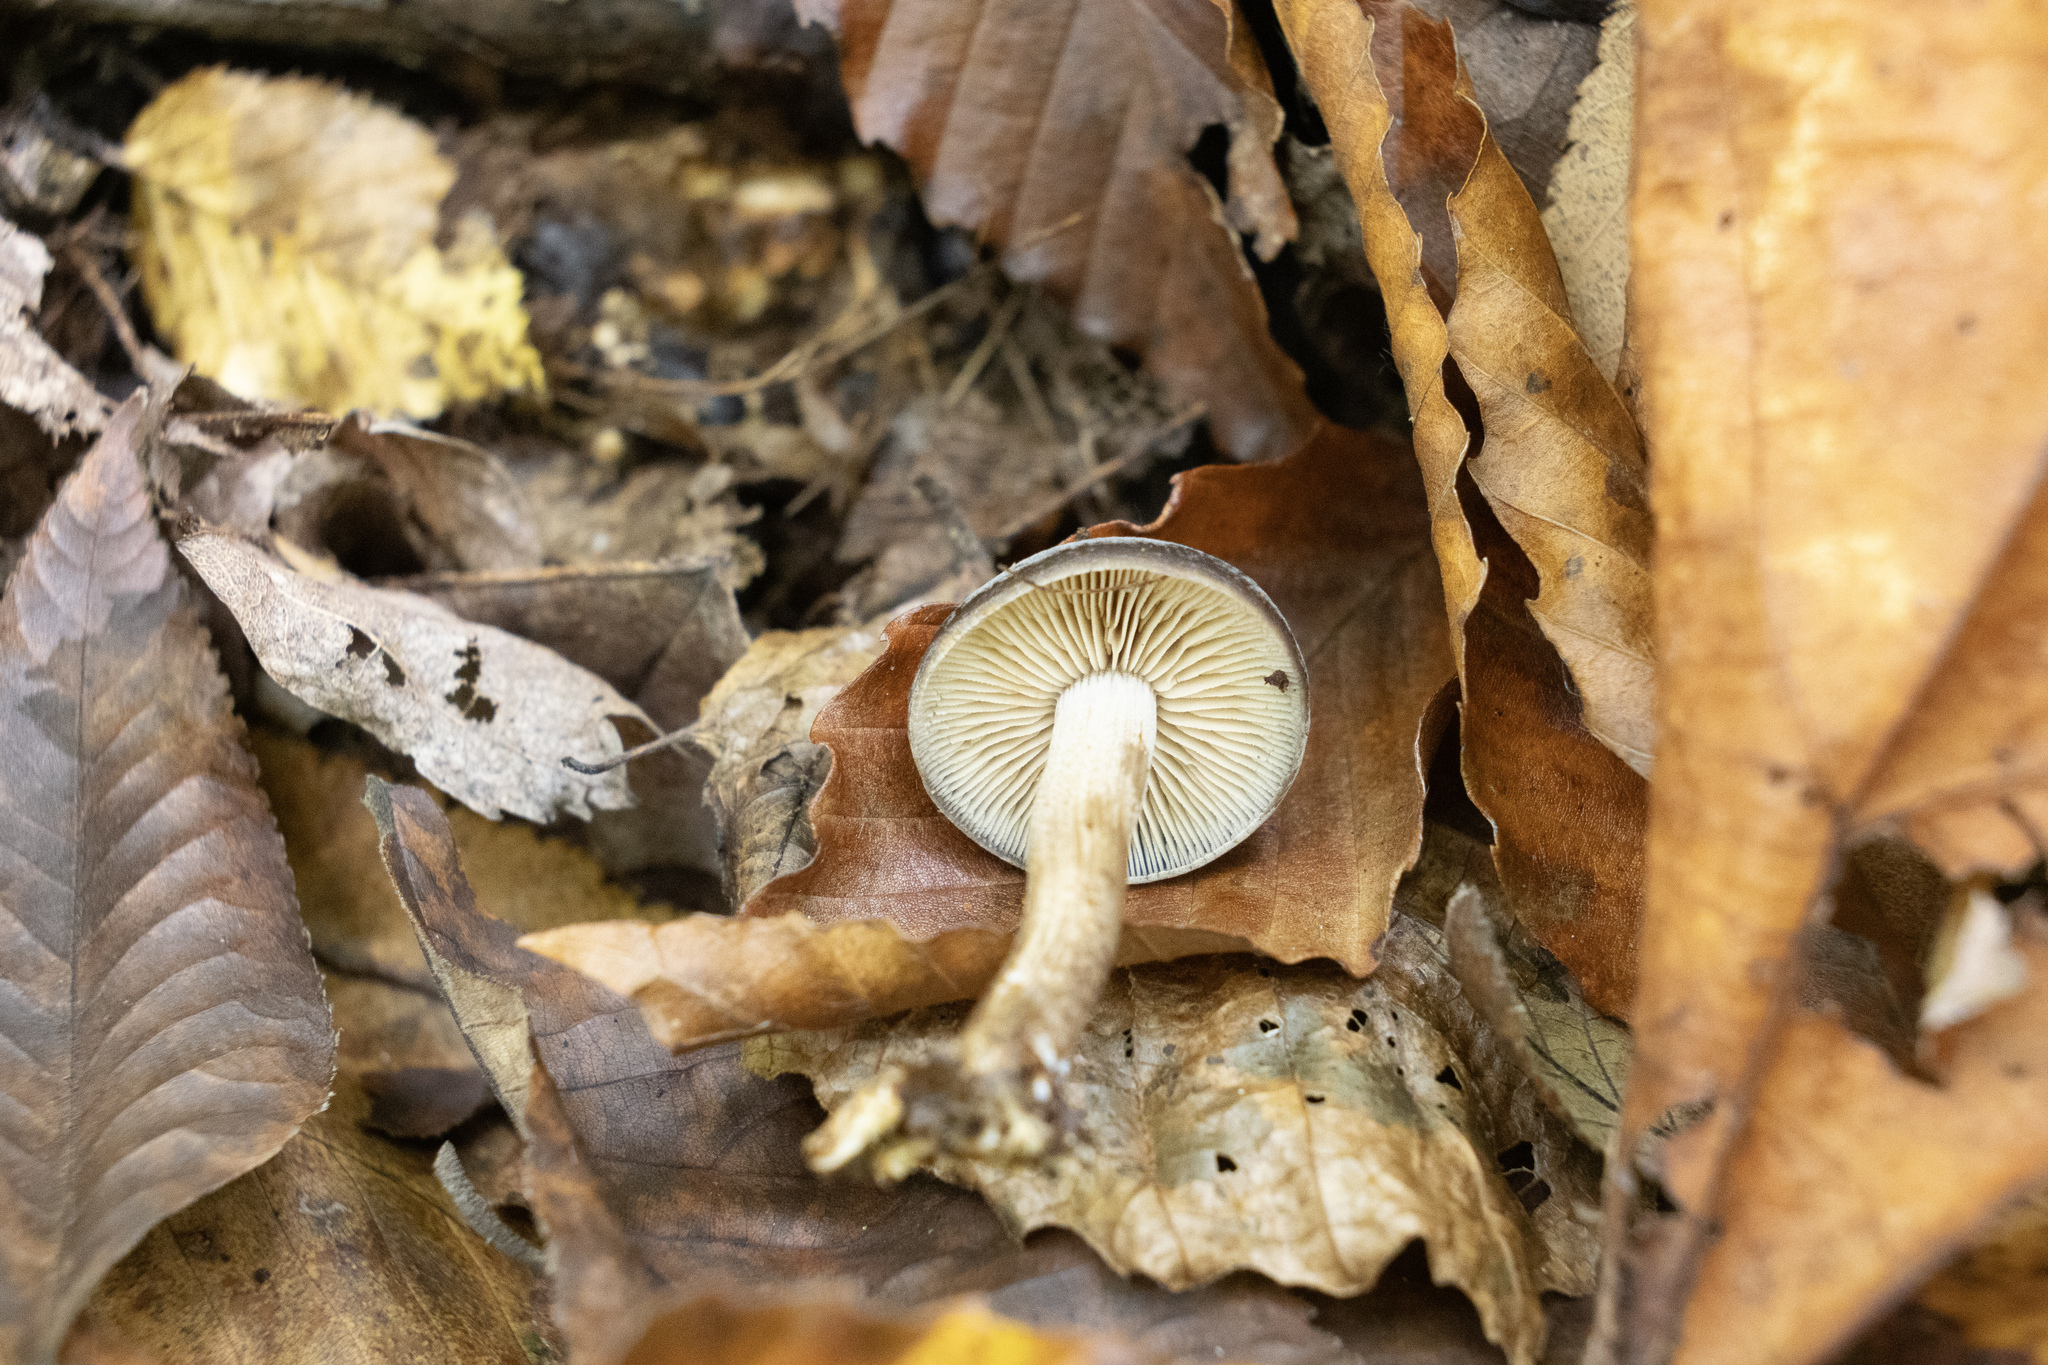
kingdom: Fungi
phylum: Basidiomycota
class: Agaricomycetes
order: Agaricales
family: Strophariaceae
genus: Agrocybe
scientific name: Agrocybe firma
